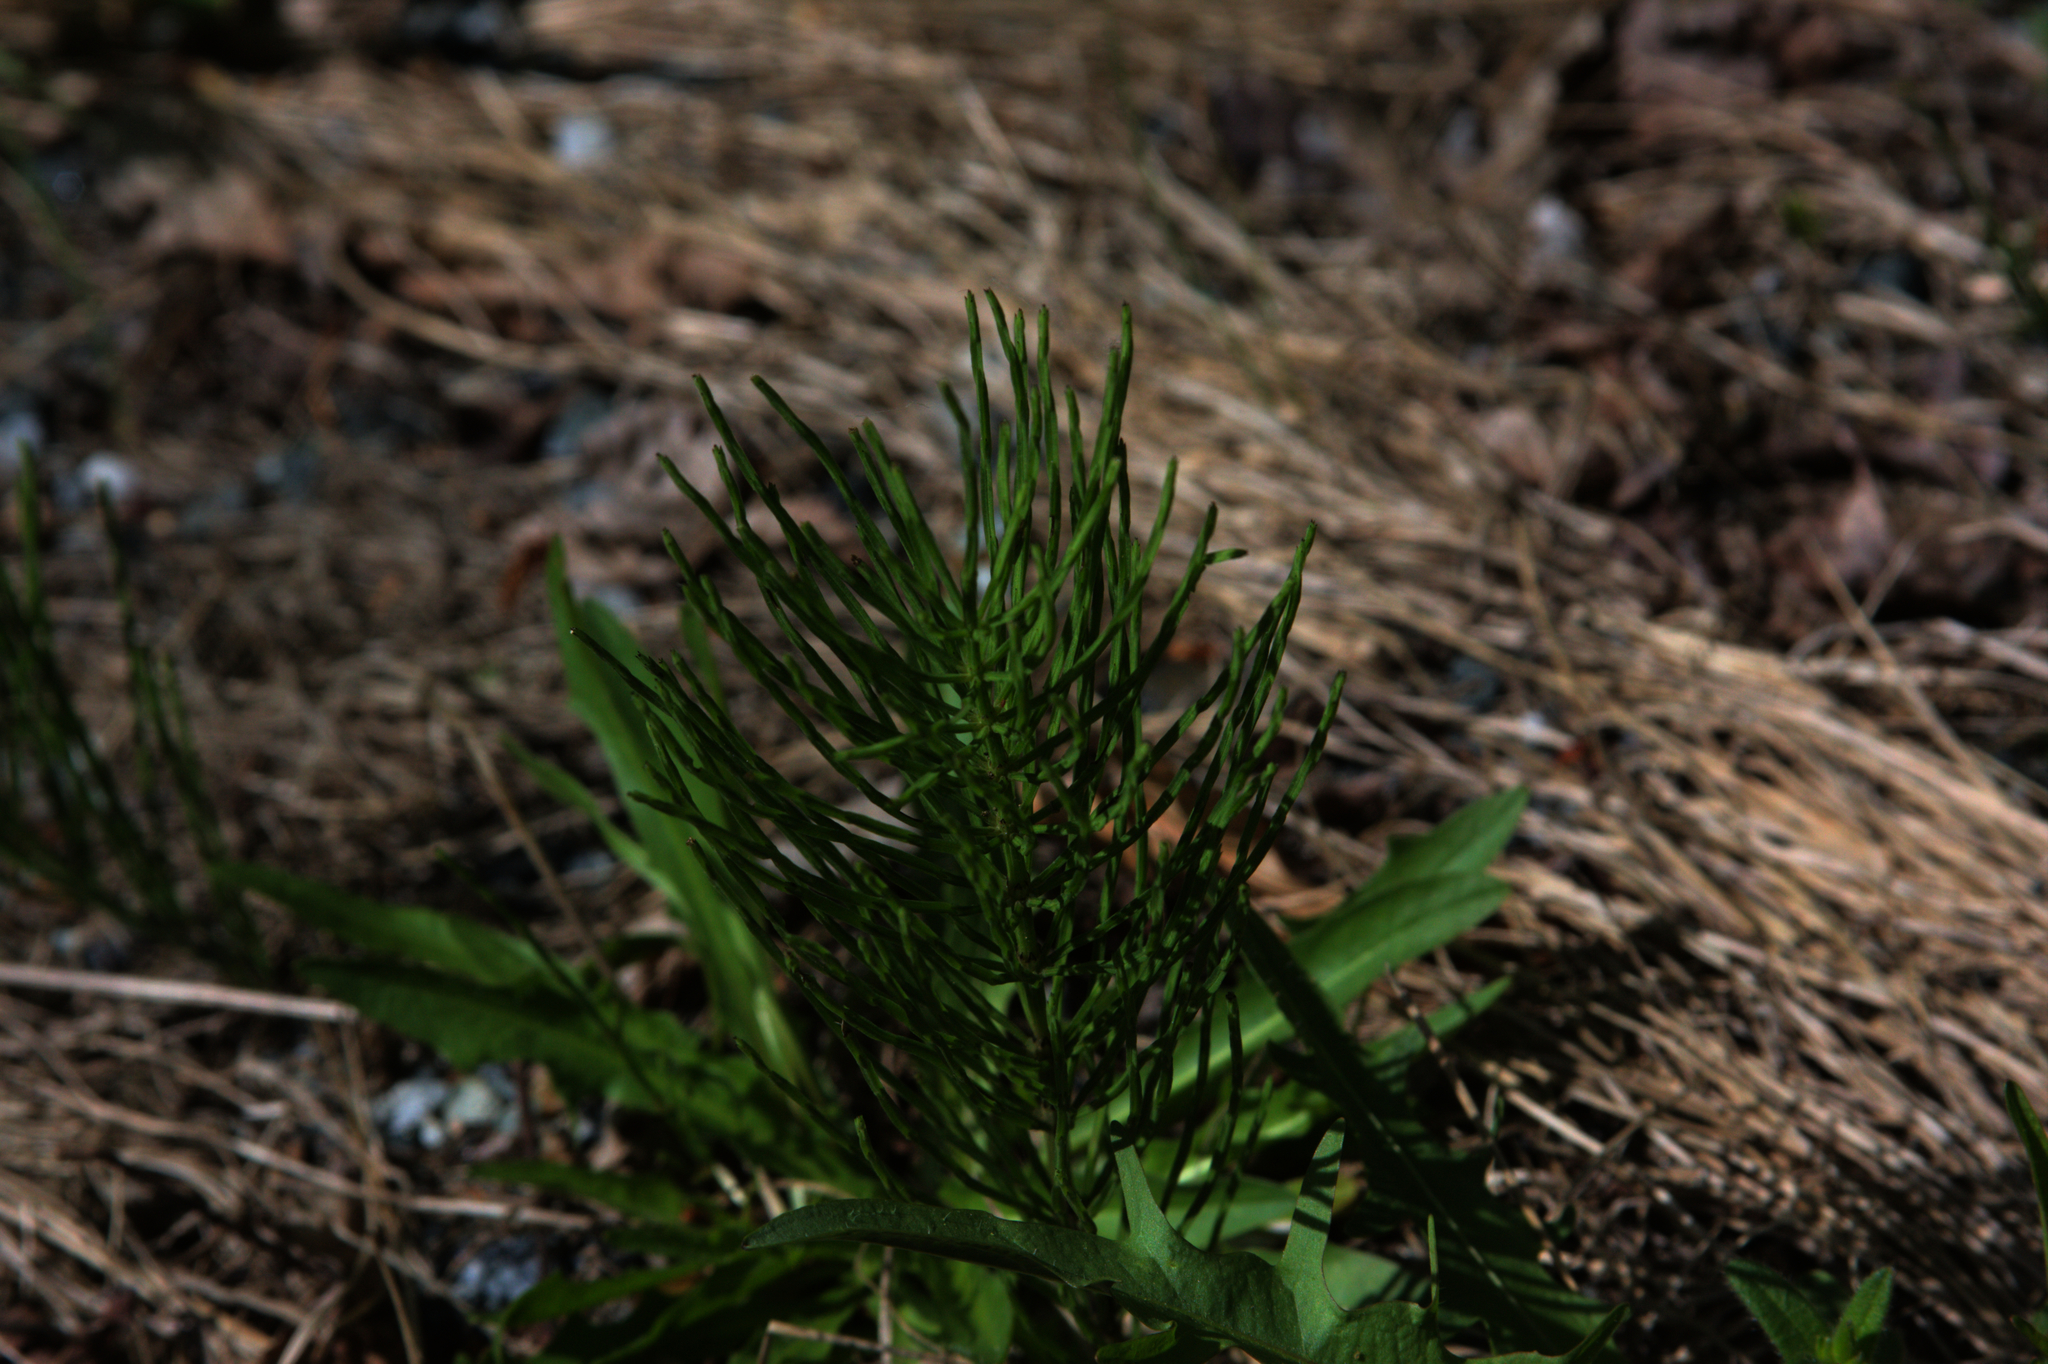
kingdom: Plantae
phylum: Tracheophyta
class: Polypodiopsida
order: Equisetales
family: Equisetaceae
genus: Equisetum
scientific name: Equisetum arvense
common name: Field horsetail
